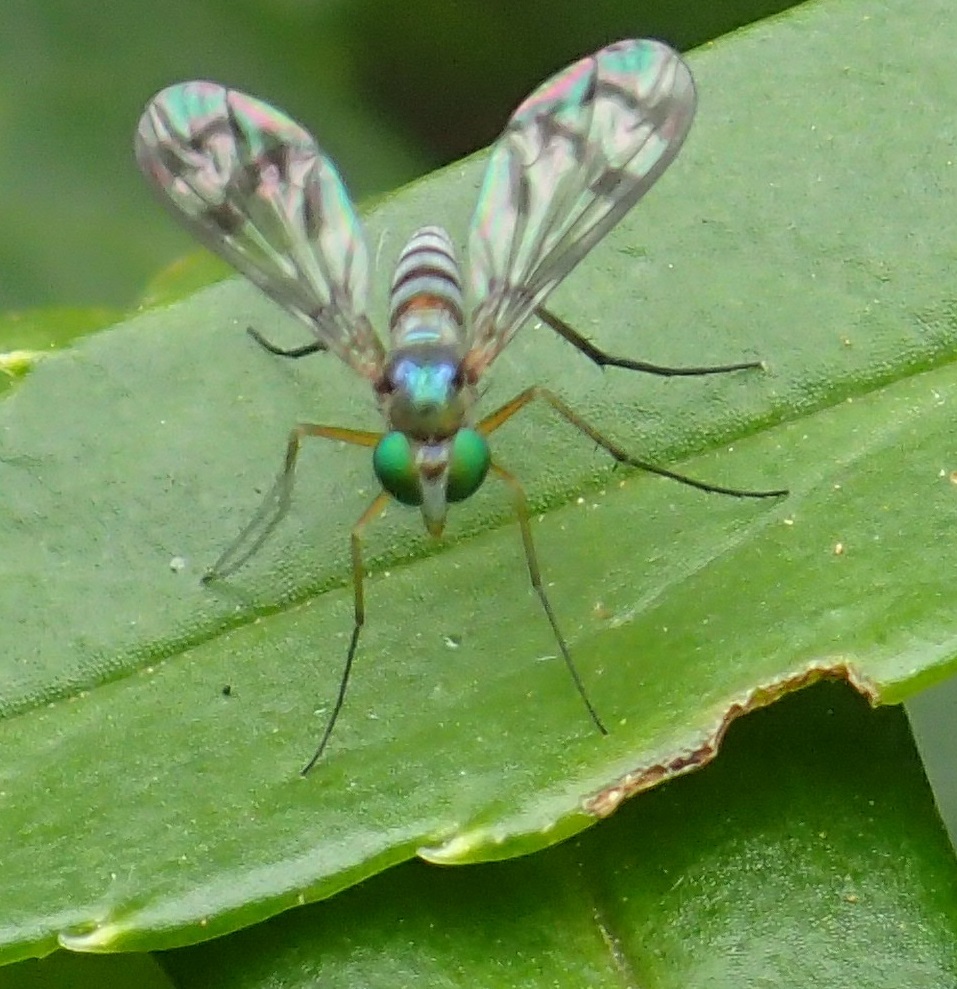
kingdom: Animalia
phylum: Arthropoda
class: Insecta
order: Diptera
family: Dolichopodidae
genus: Heteropsilopus
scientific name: Heteropsilopus ingenuum
